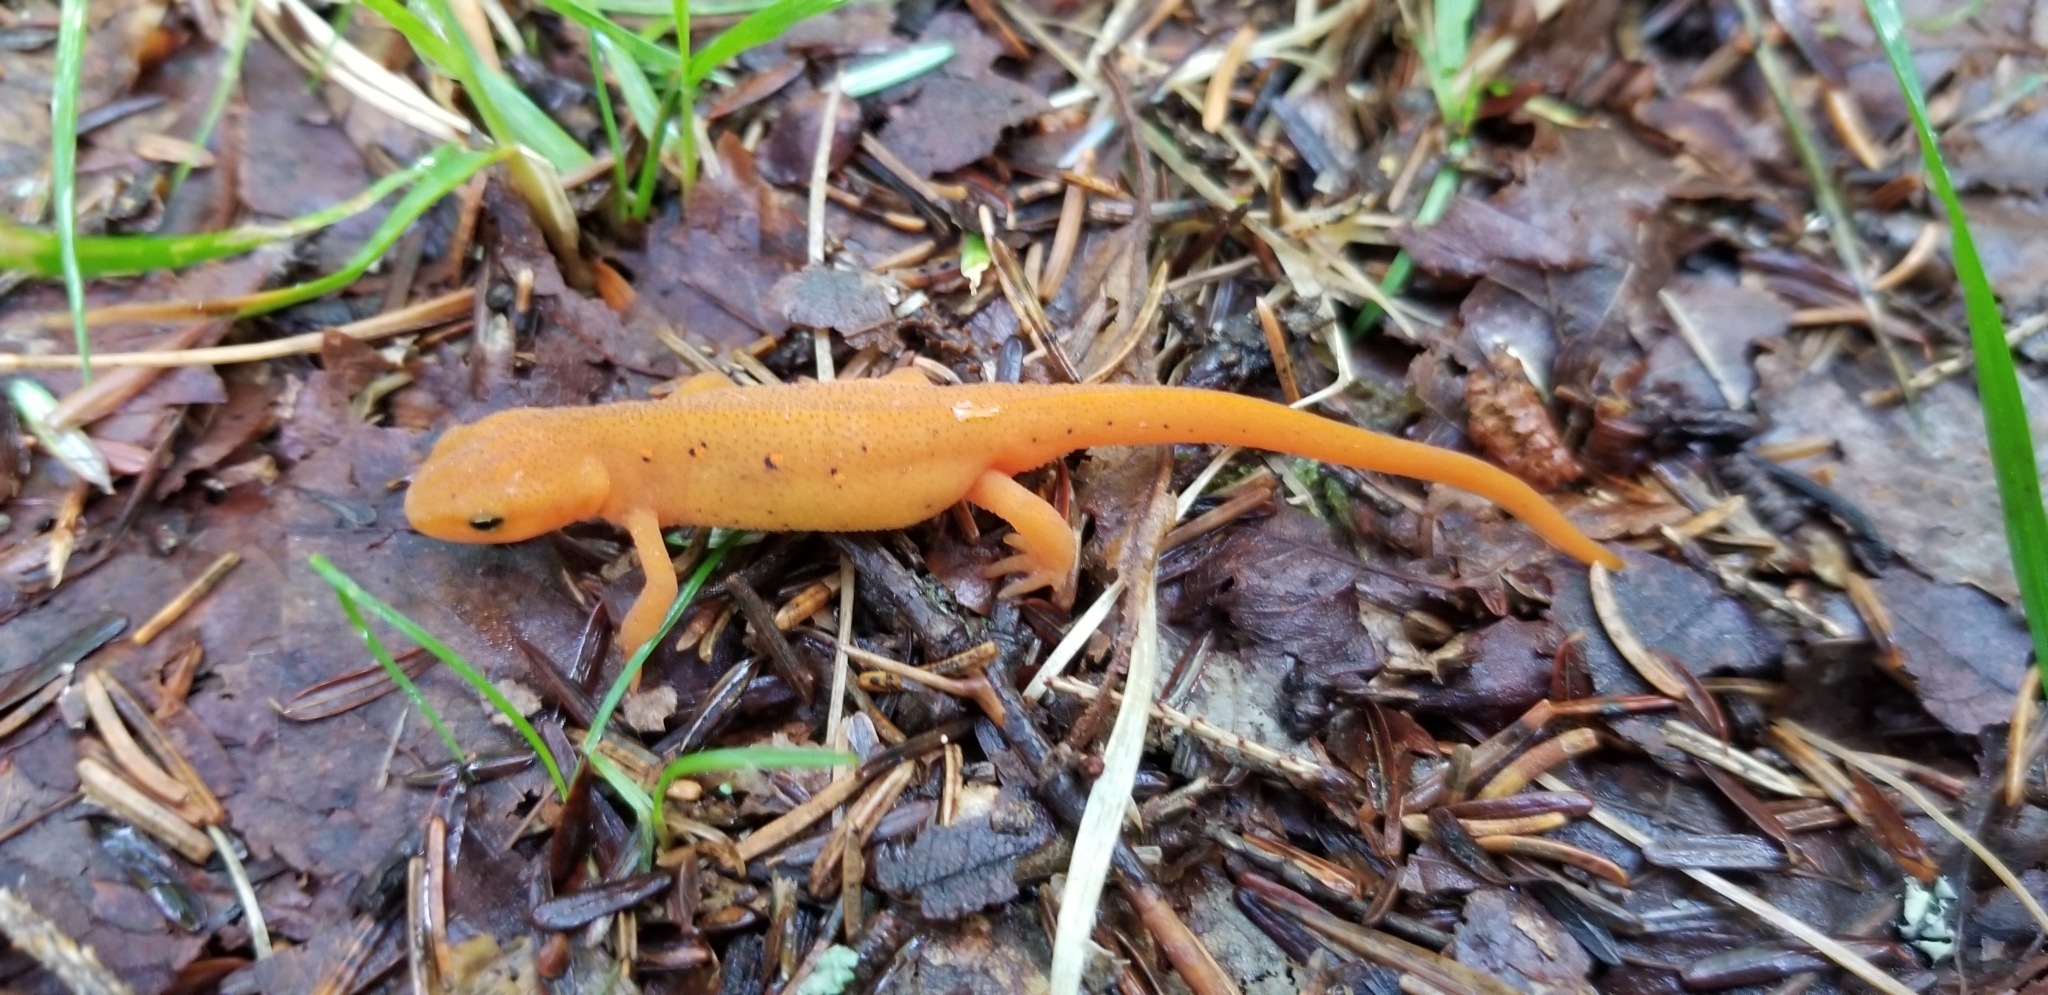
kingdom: Animalia
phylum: Chordata
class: Amphibia
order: Caudata
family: Salamandridae
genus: Notophthalmus
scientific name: Notophthalmus viridescens
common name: Eastern newt
